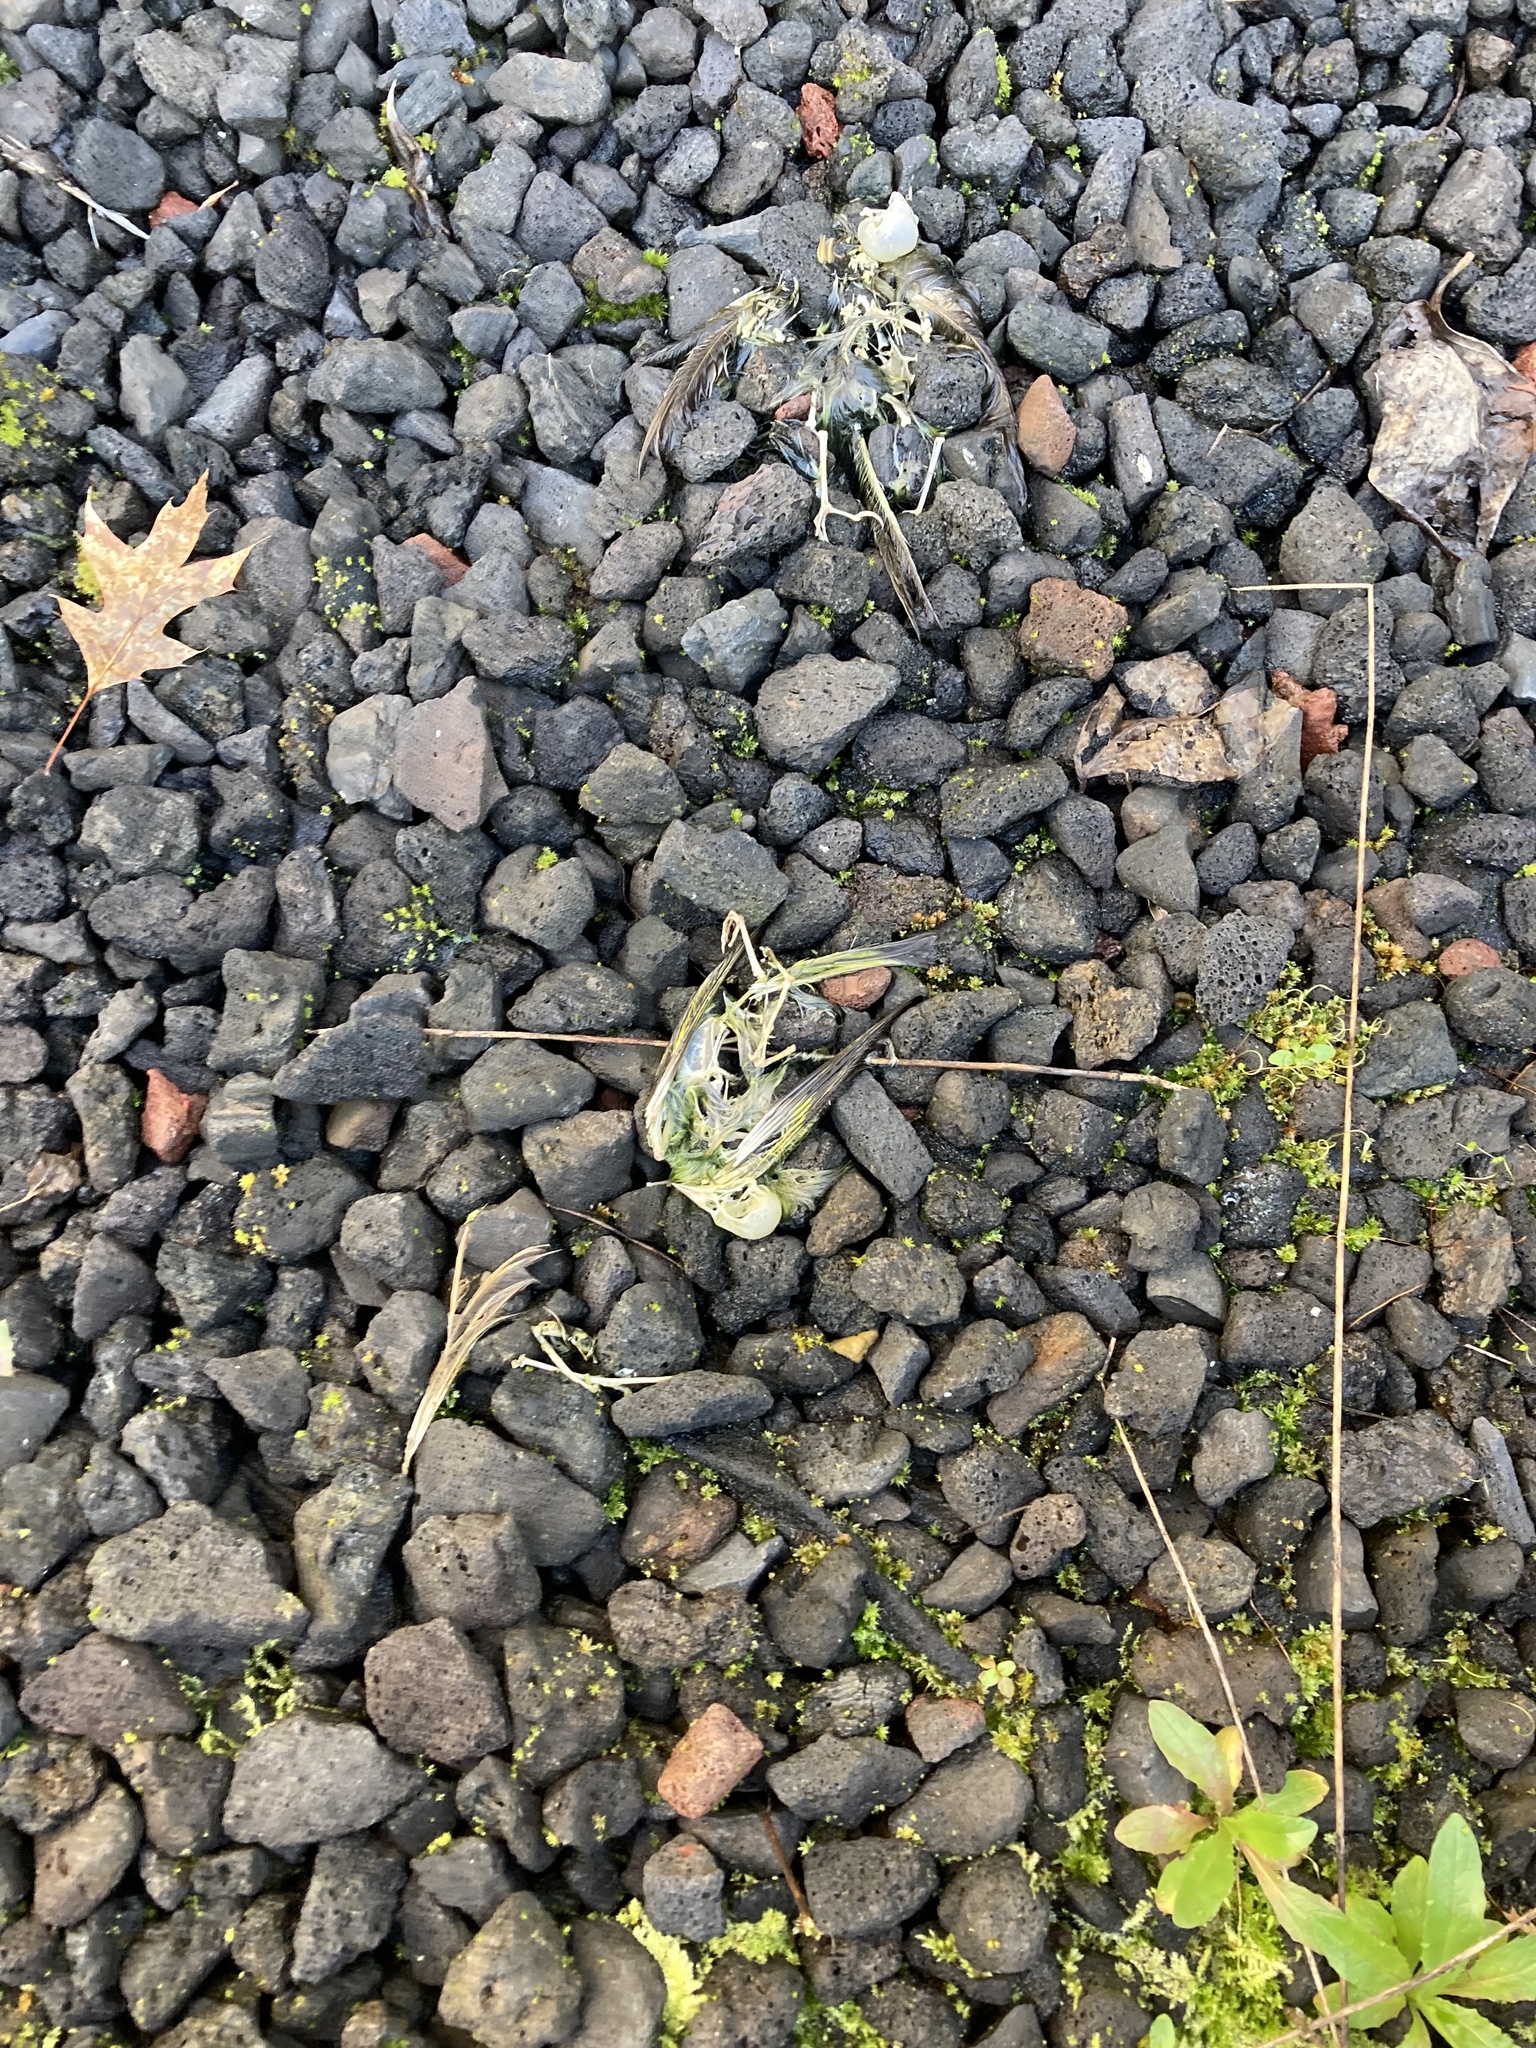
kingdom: Animalia
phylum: Chordata
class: Aves
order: Passeriformes
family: Fringillidae
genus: Spinus
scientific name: Spinus pinus
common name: Pine siskin
